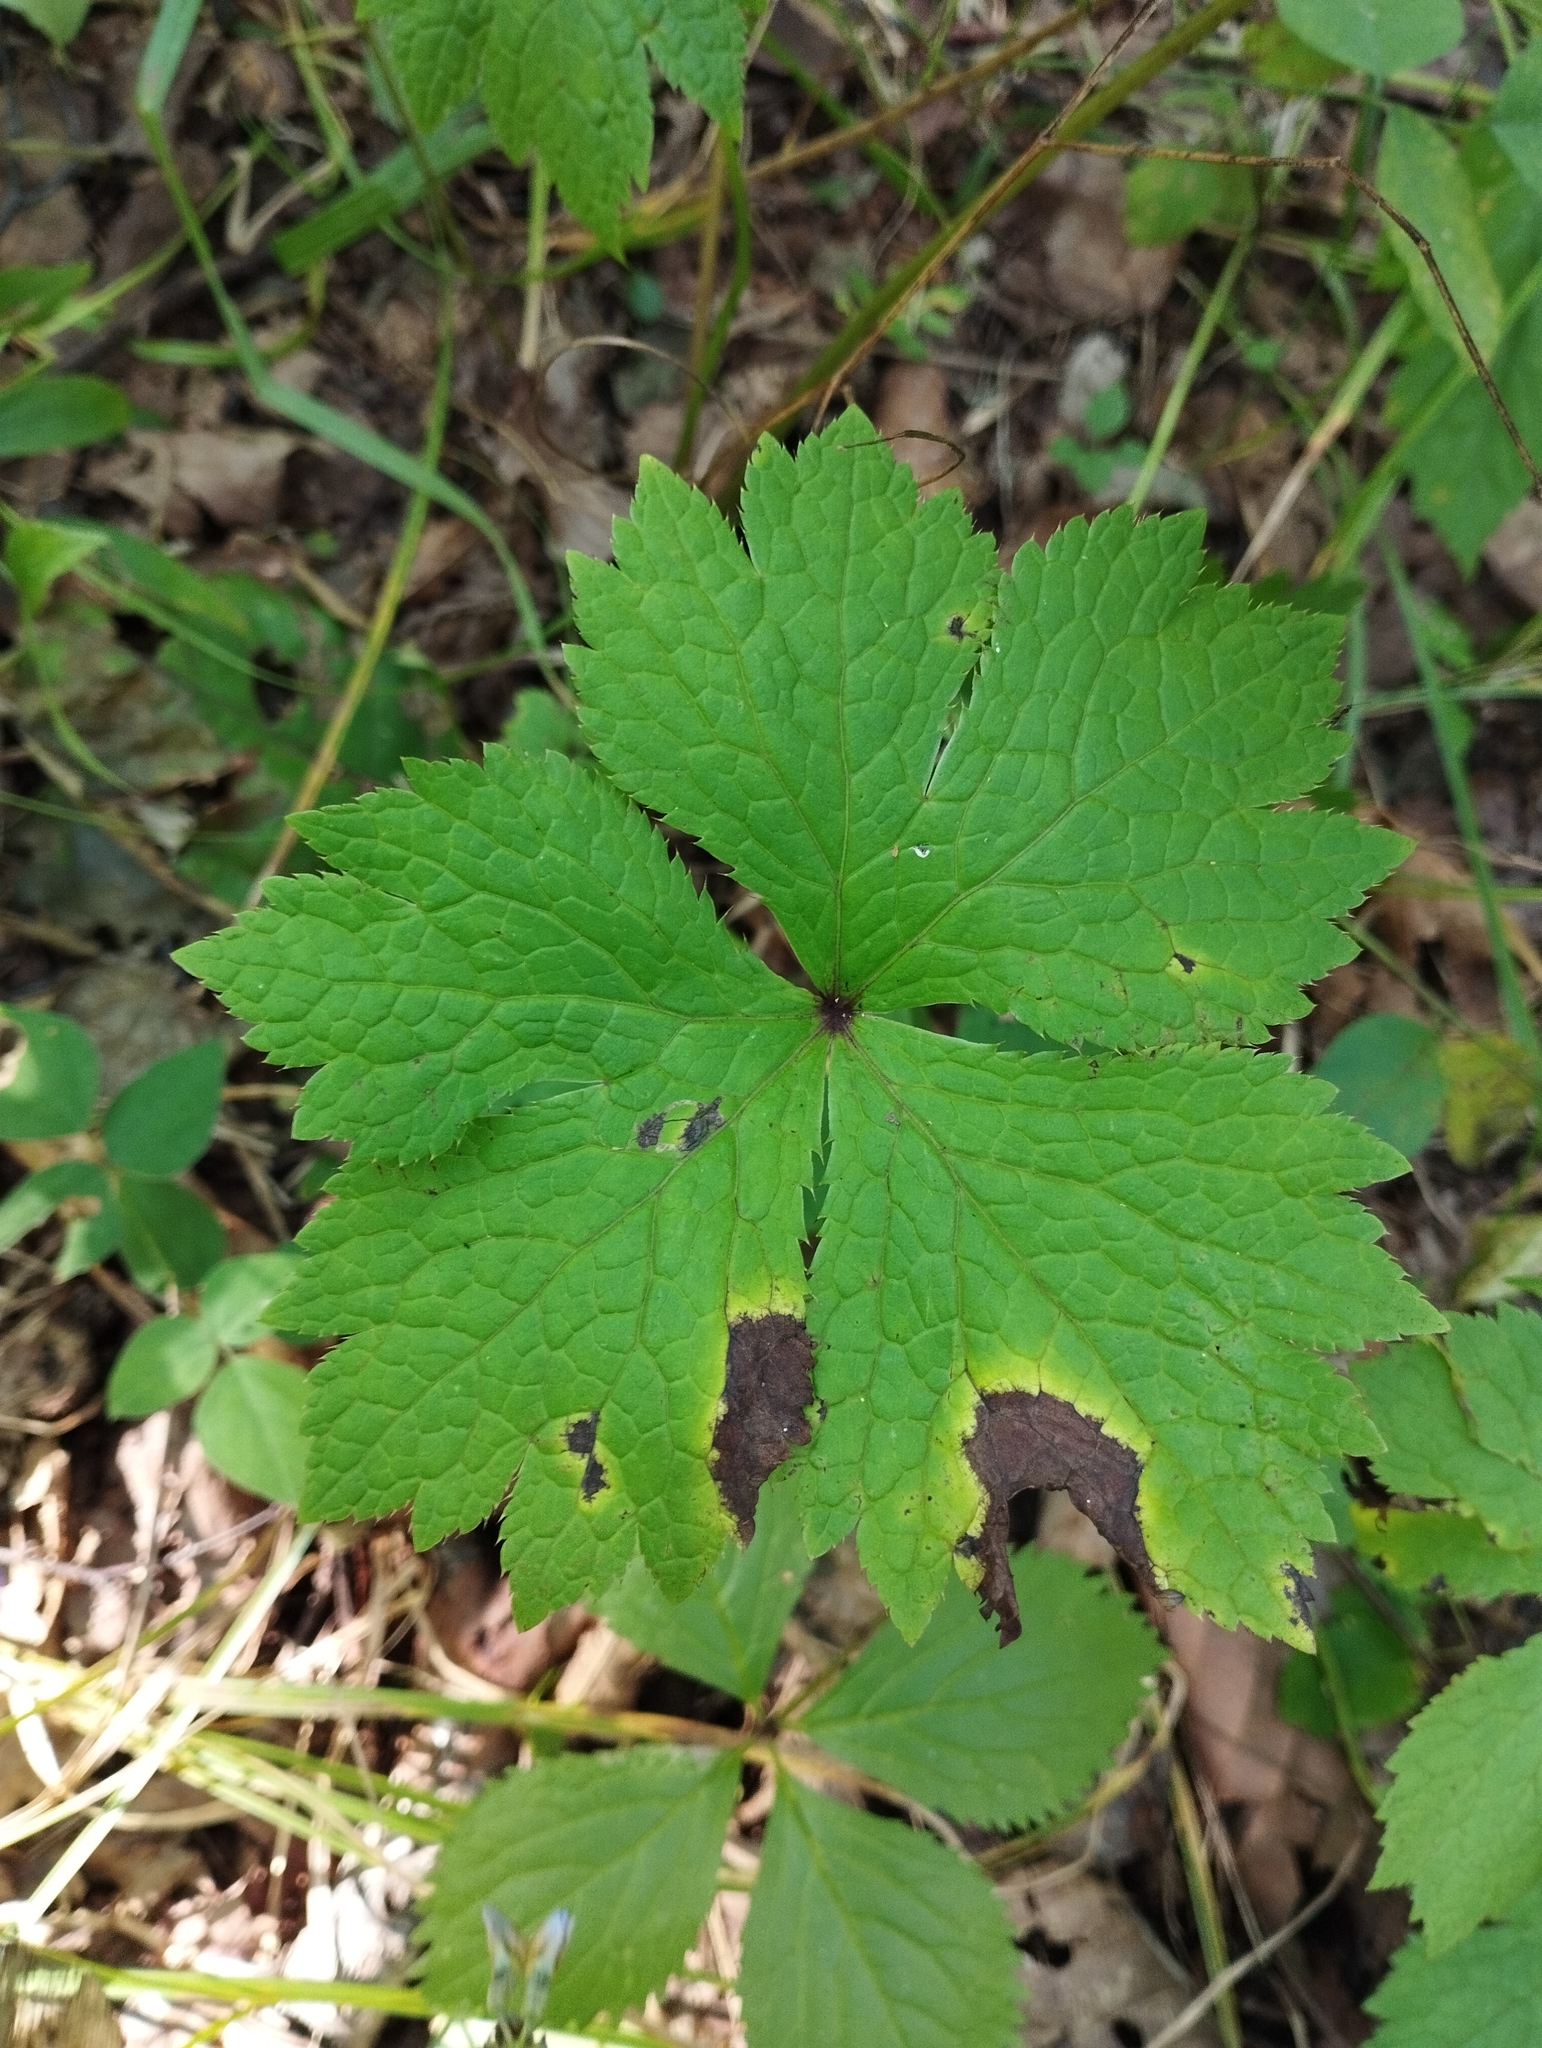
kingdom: Plantae
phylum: Tracheophyta
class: Magnoliopsida
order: Apiales
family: Apiaceae
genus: Sanicula
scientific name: Sanicula rubriflora
